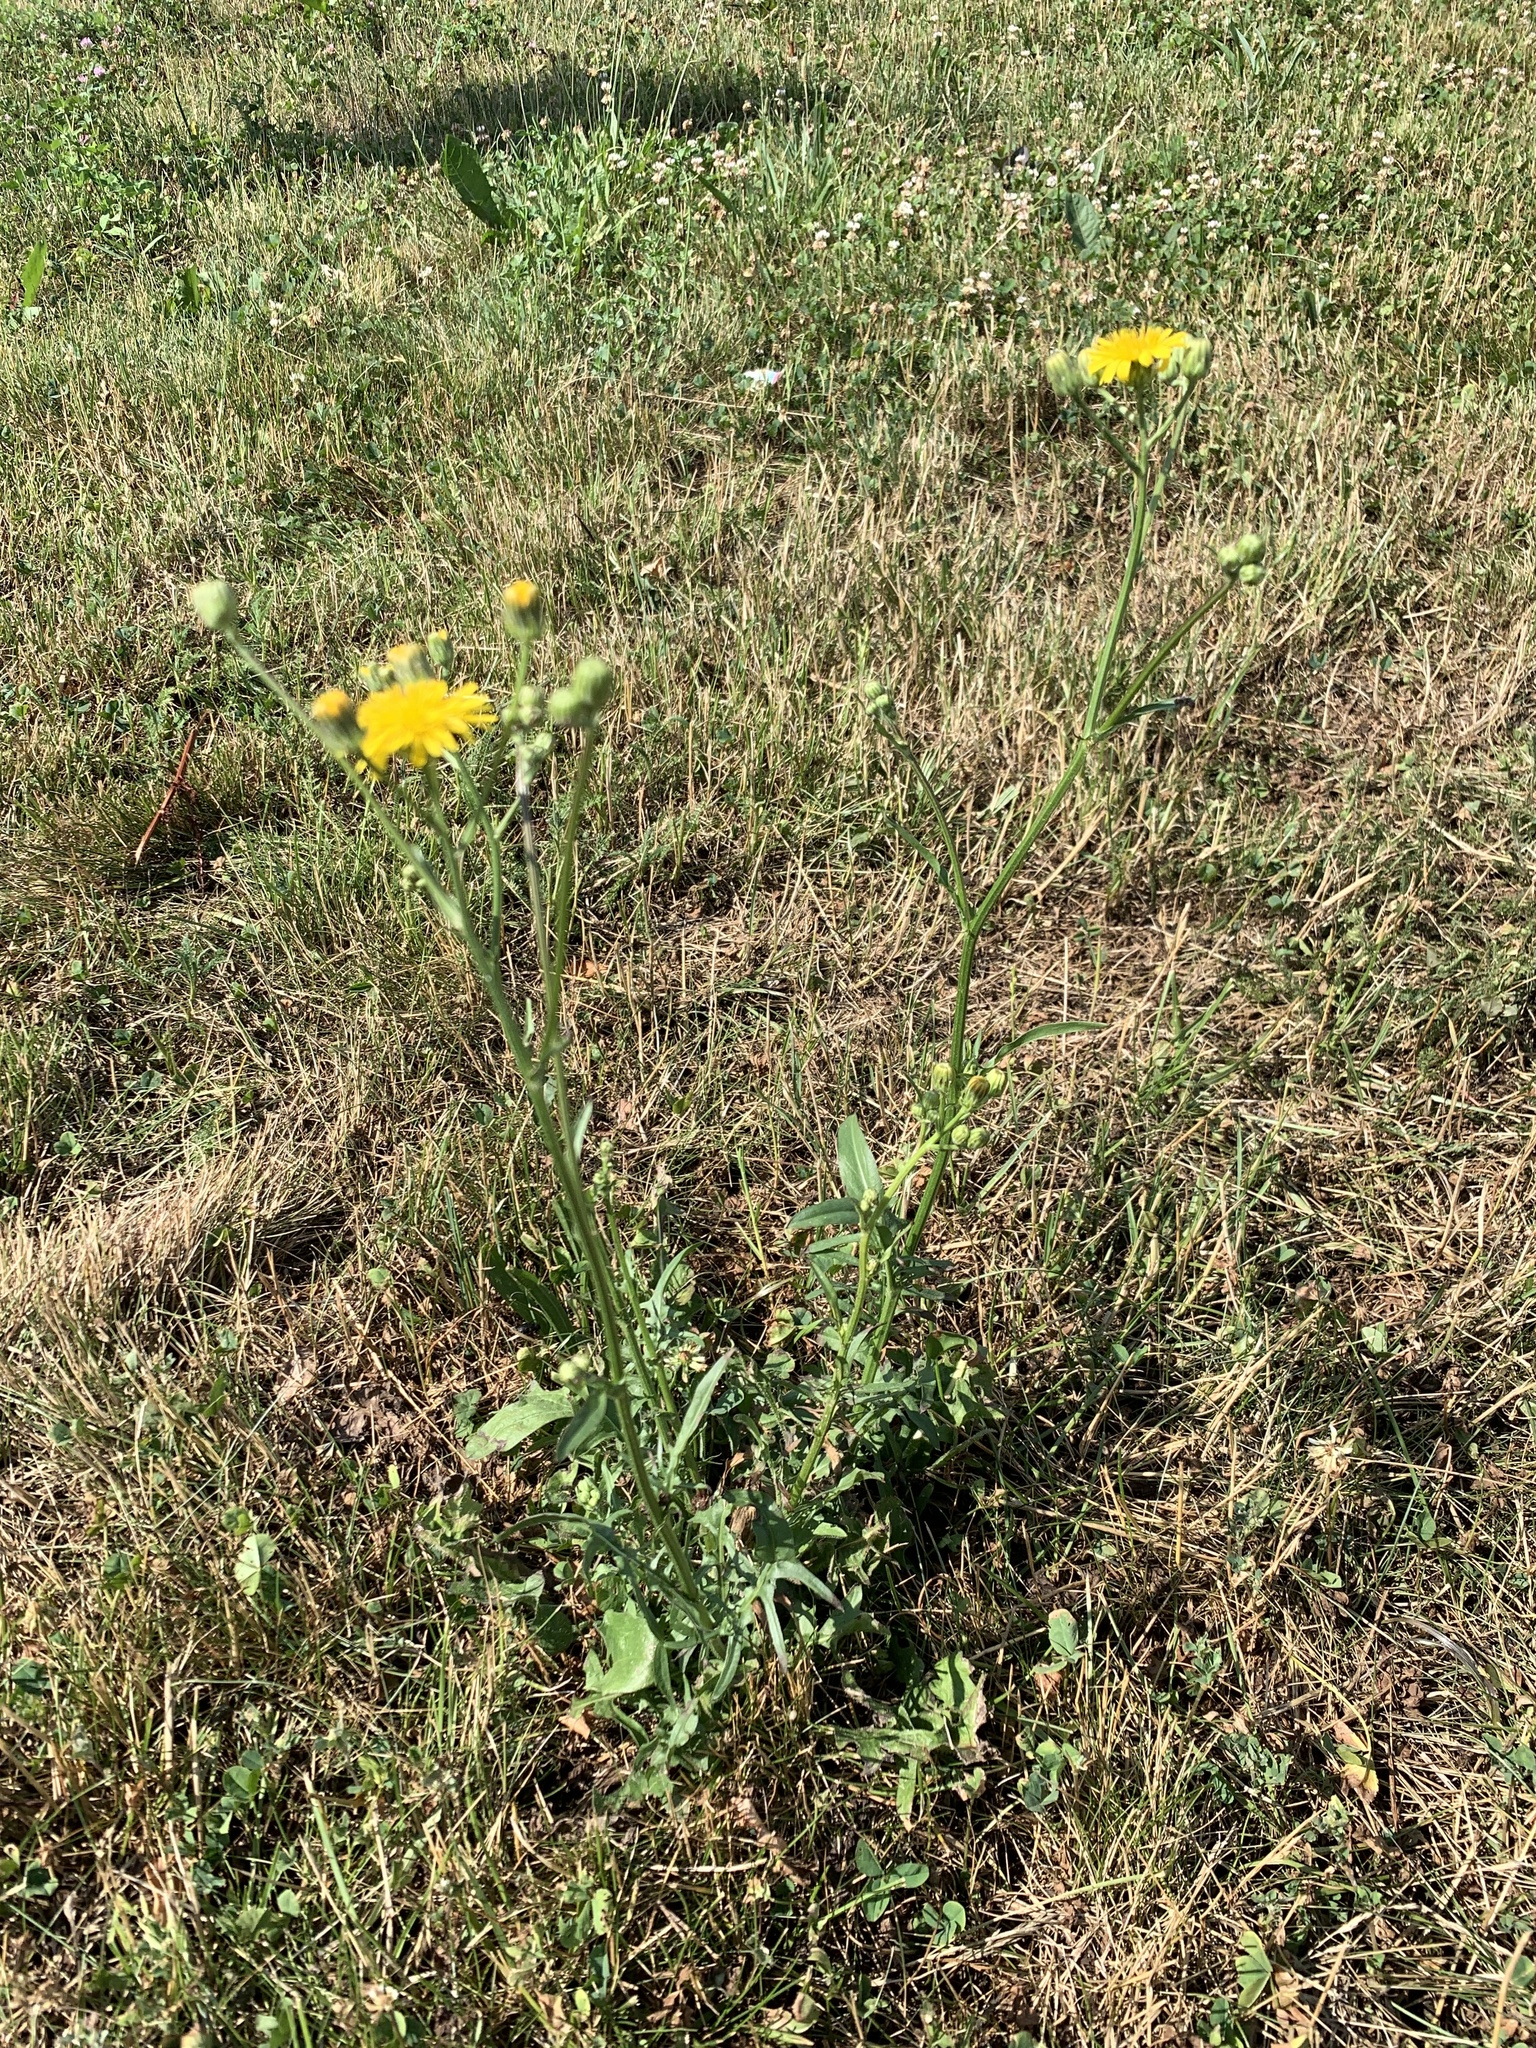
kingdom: Plantae
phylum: Tracheophyta
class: Magnoliopsida
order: Asterales
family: Asteraceae
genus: Crepis
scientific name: Crepis biennis
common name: Rough hawk's-beard
